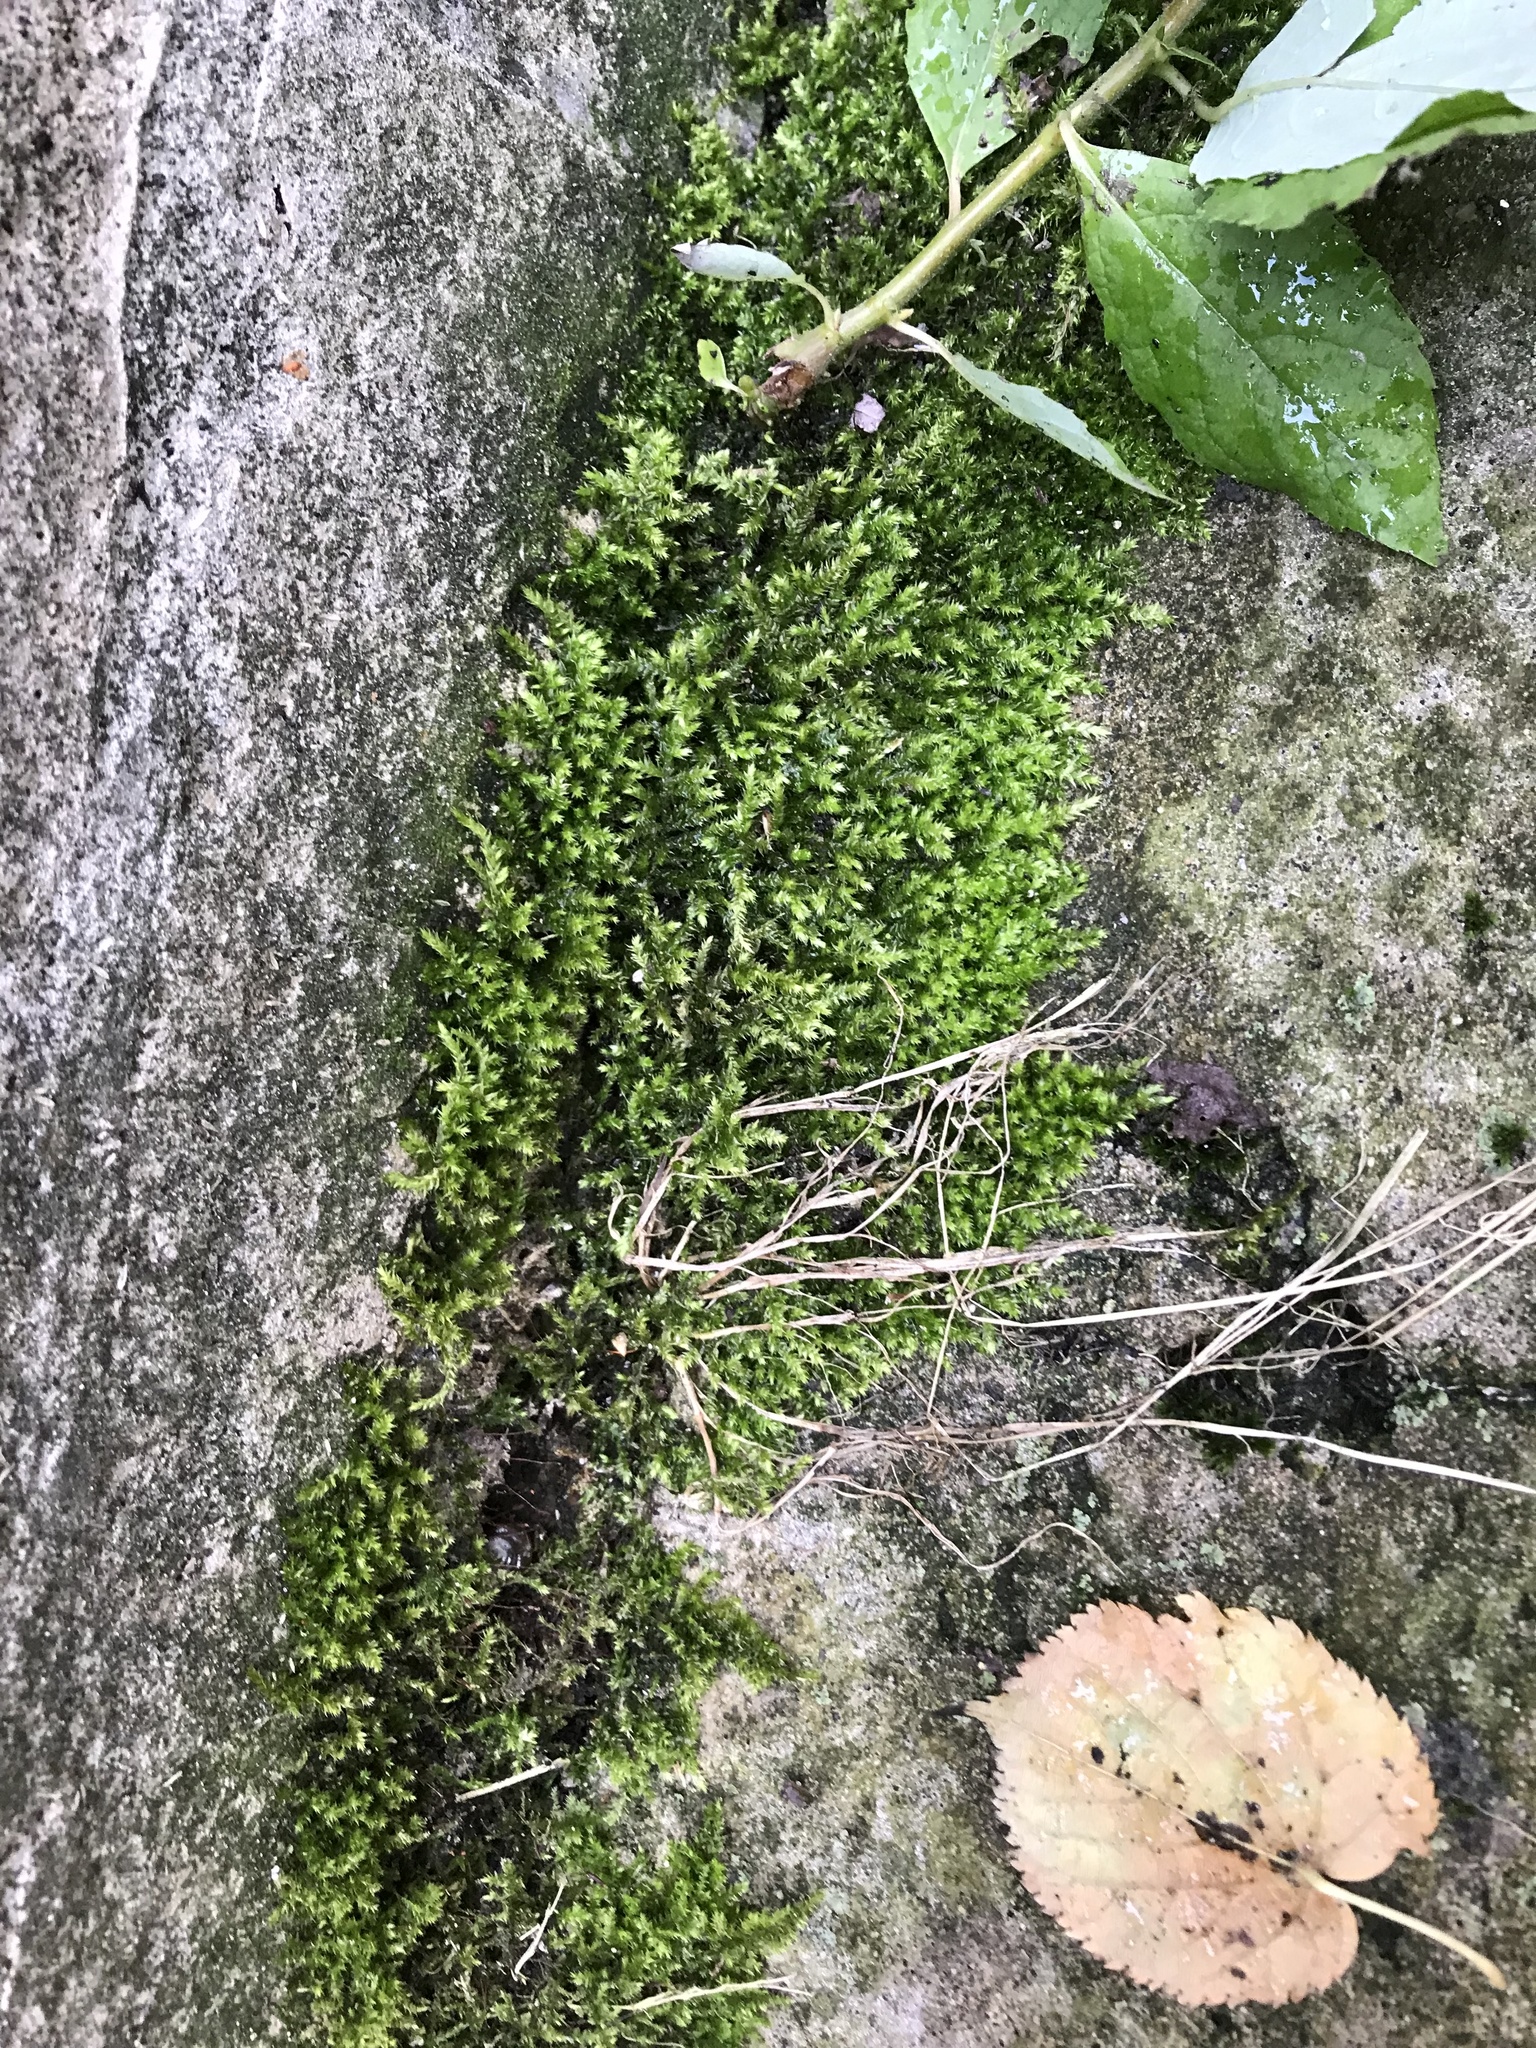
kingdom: Plantae
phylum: Bryophyta
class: Bryopsida
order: Hypnales
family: Hypnaceae
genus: Hypnum
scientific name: Hypnum cupressiforme
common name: Cypress-leaved plait-moss
